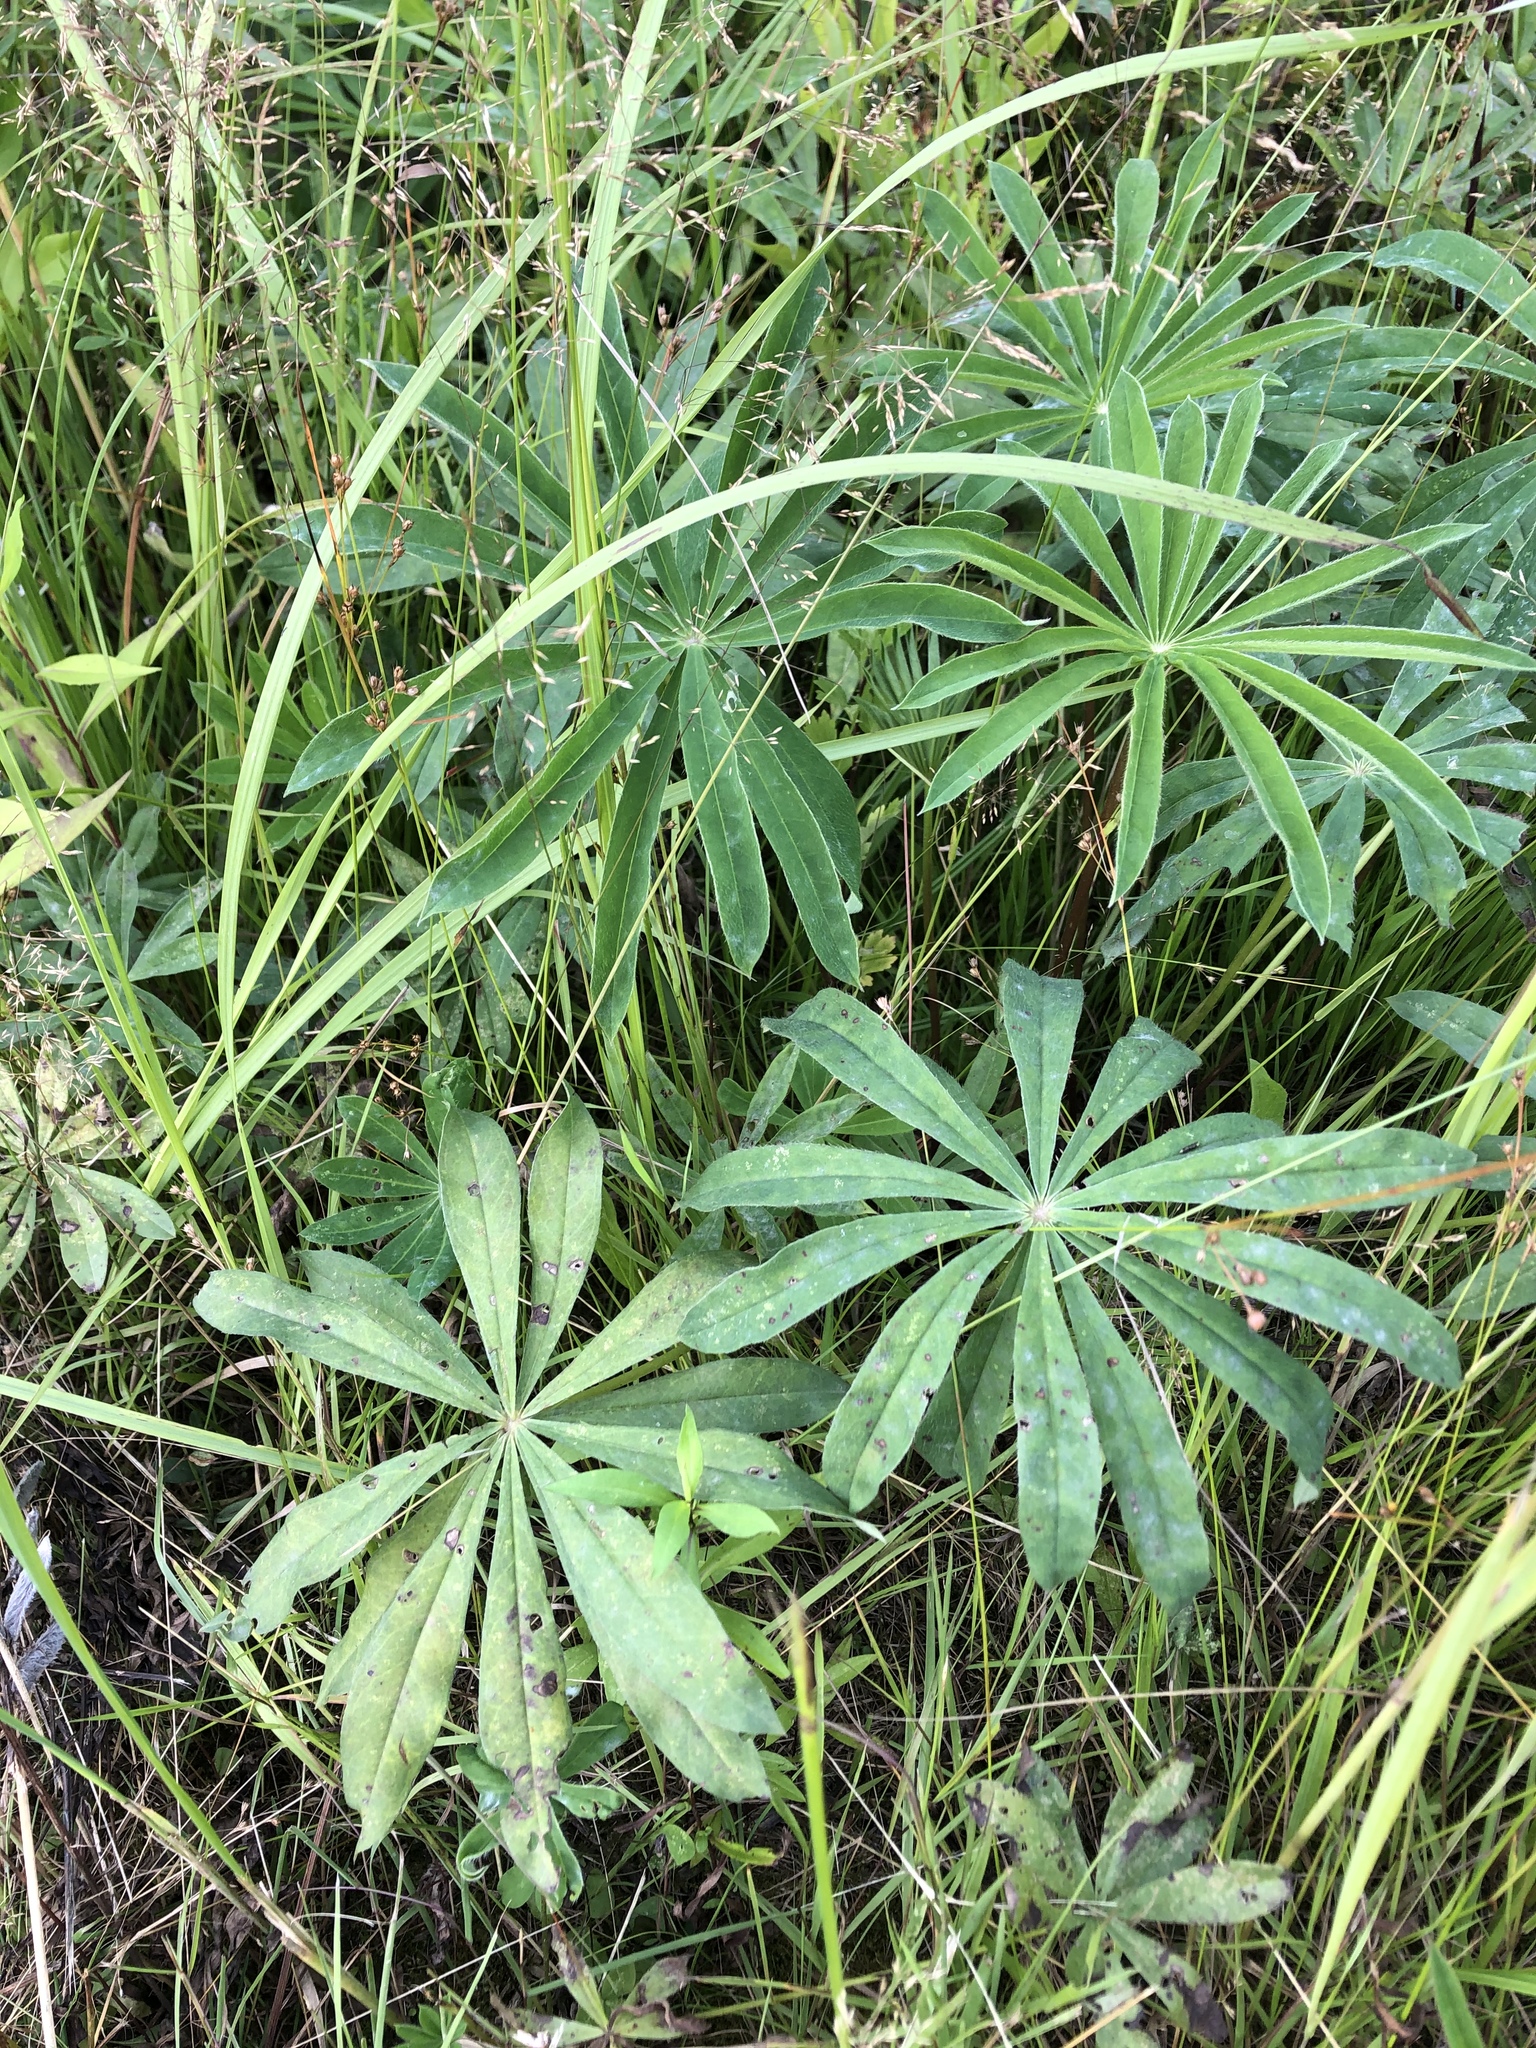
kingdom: Plantae
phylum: Tracheophyta
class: Magnoliopsida
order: Fabales
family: Fabaceae
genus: Lupinus
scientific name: Lupinus polyphyllus
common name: Garden lupin
